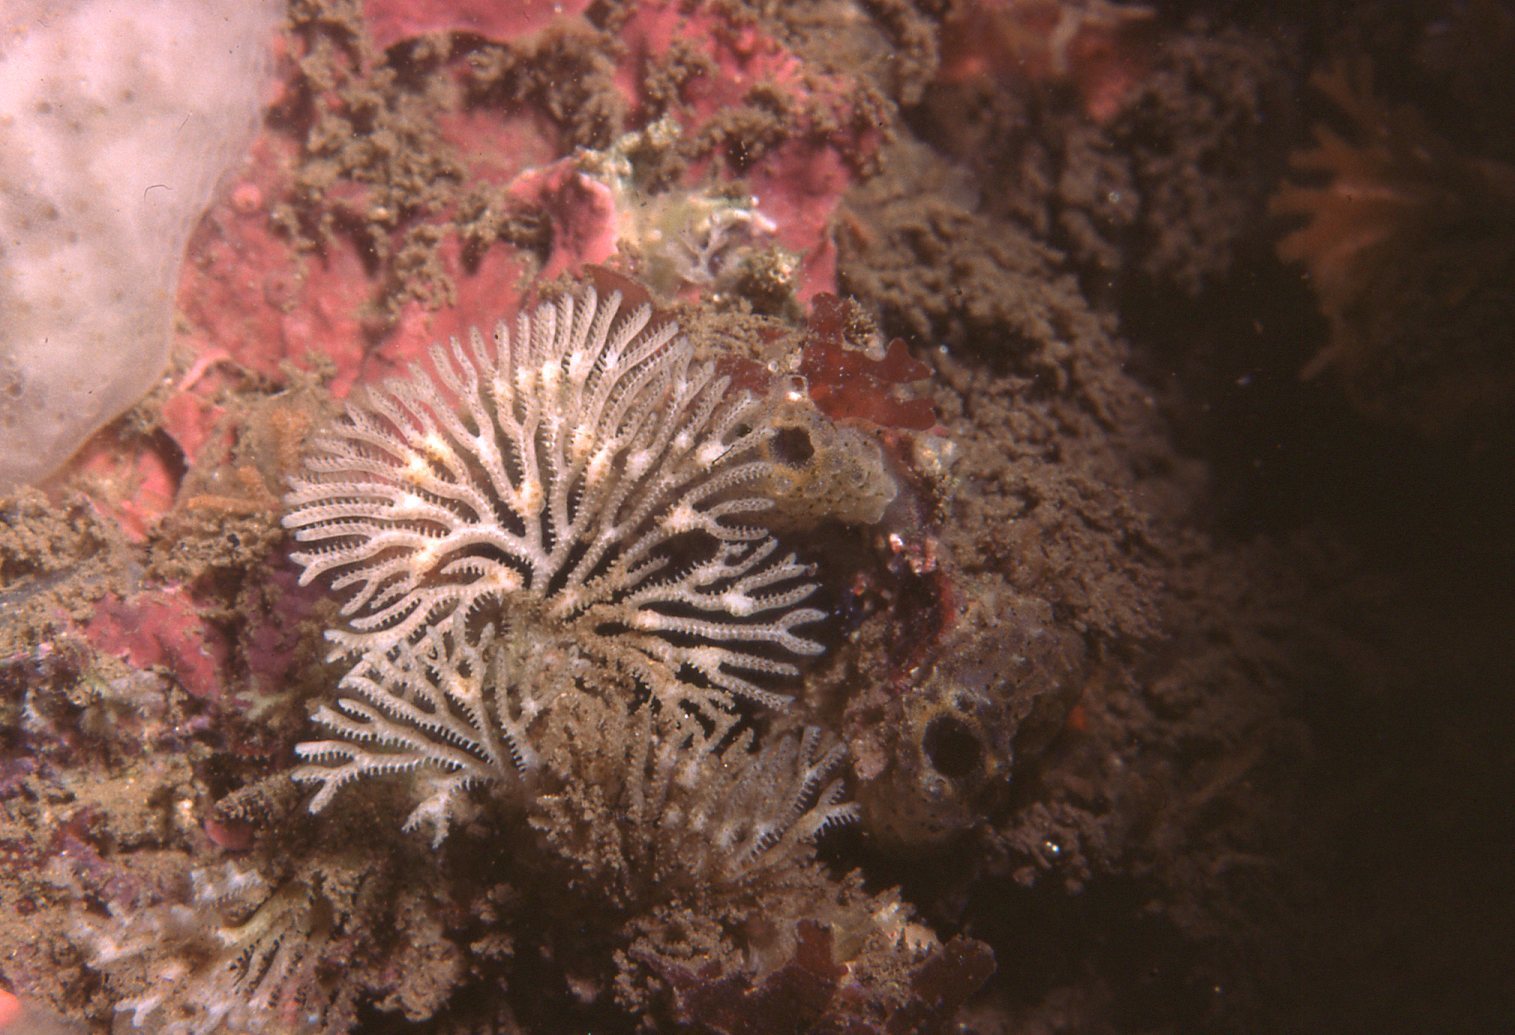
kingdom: Animalia
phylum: Bryozoa
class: Stenolaemata
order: Cyclostomatida
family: Crisinidae
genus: Mesonea
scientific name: Mesonea radians
